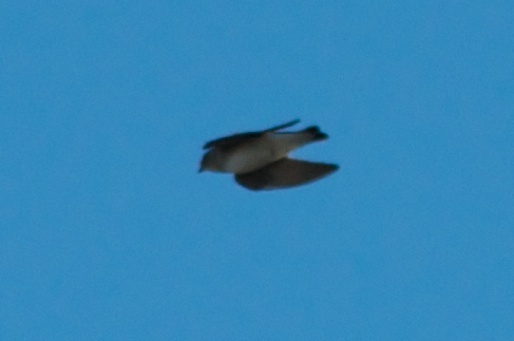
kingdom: Animalia
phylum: Chordata
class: Aves
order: Passeriformes
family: Hirundinidae
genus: Stelgidopteryx
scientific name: Stelgidopteryx serripennis
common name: Northern rough-winged swallow
